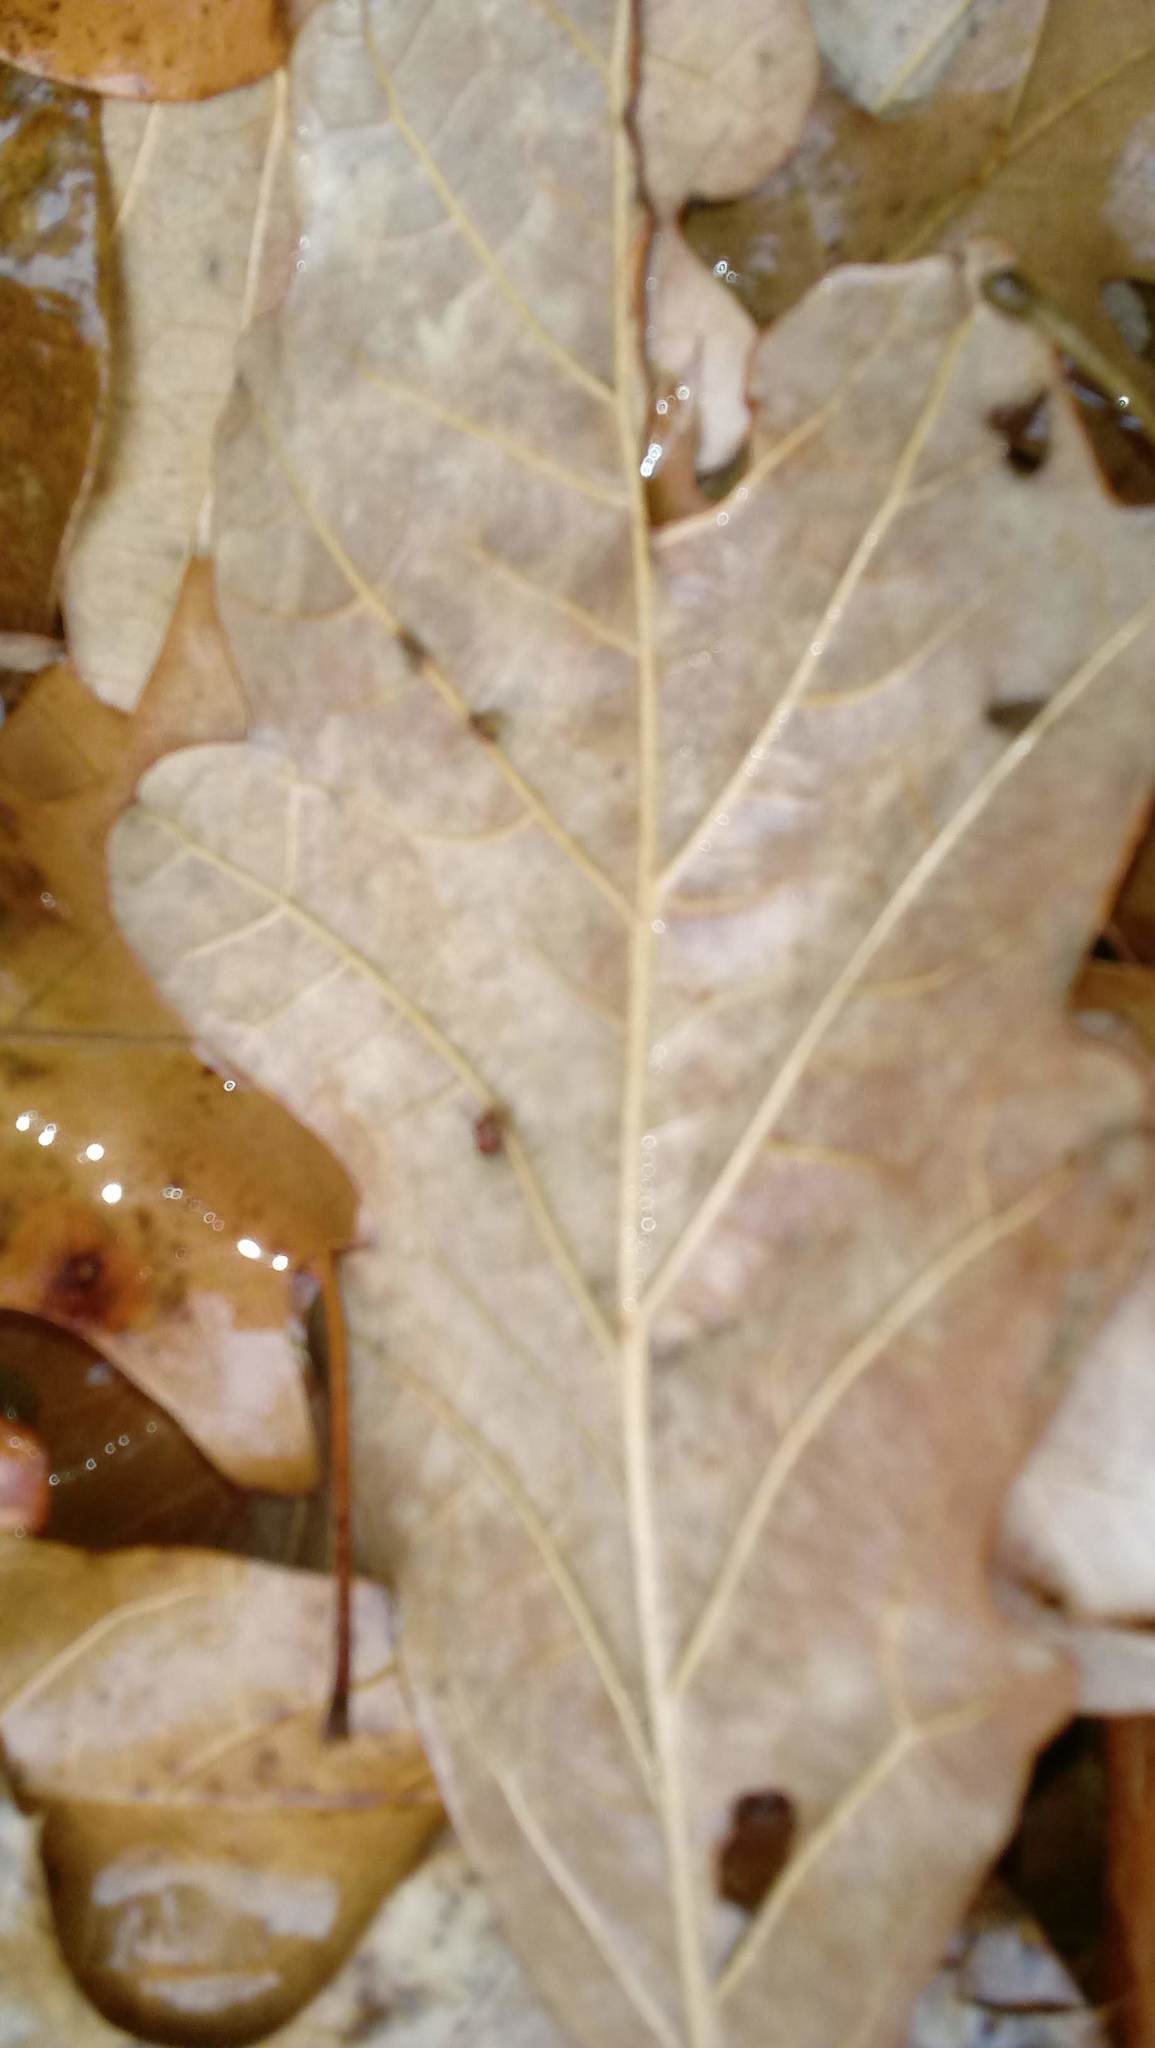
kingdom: Animalia
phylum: Arthropoda
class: Insecta
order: Hymenoptera
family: Cynipidae
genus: Andricus
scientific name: Andricus Druon ignotum
